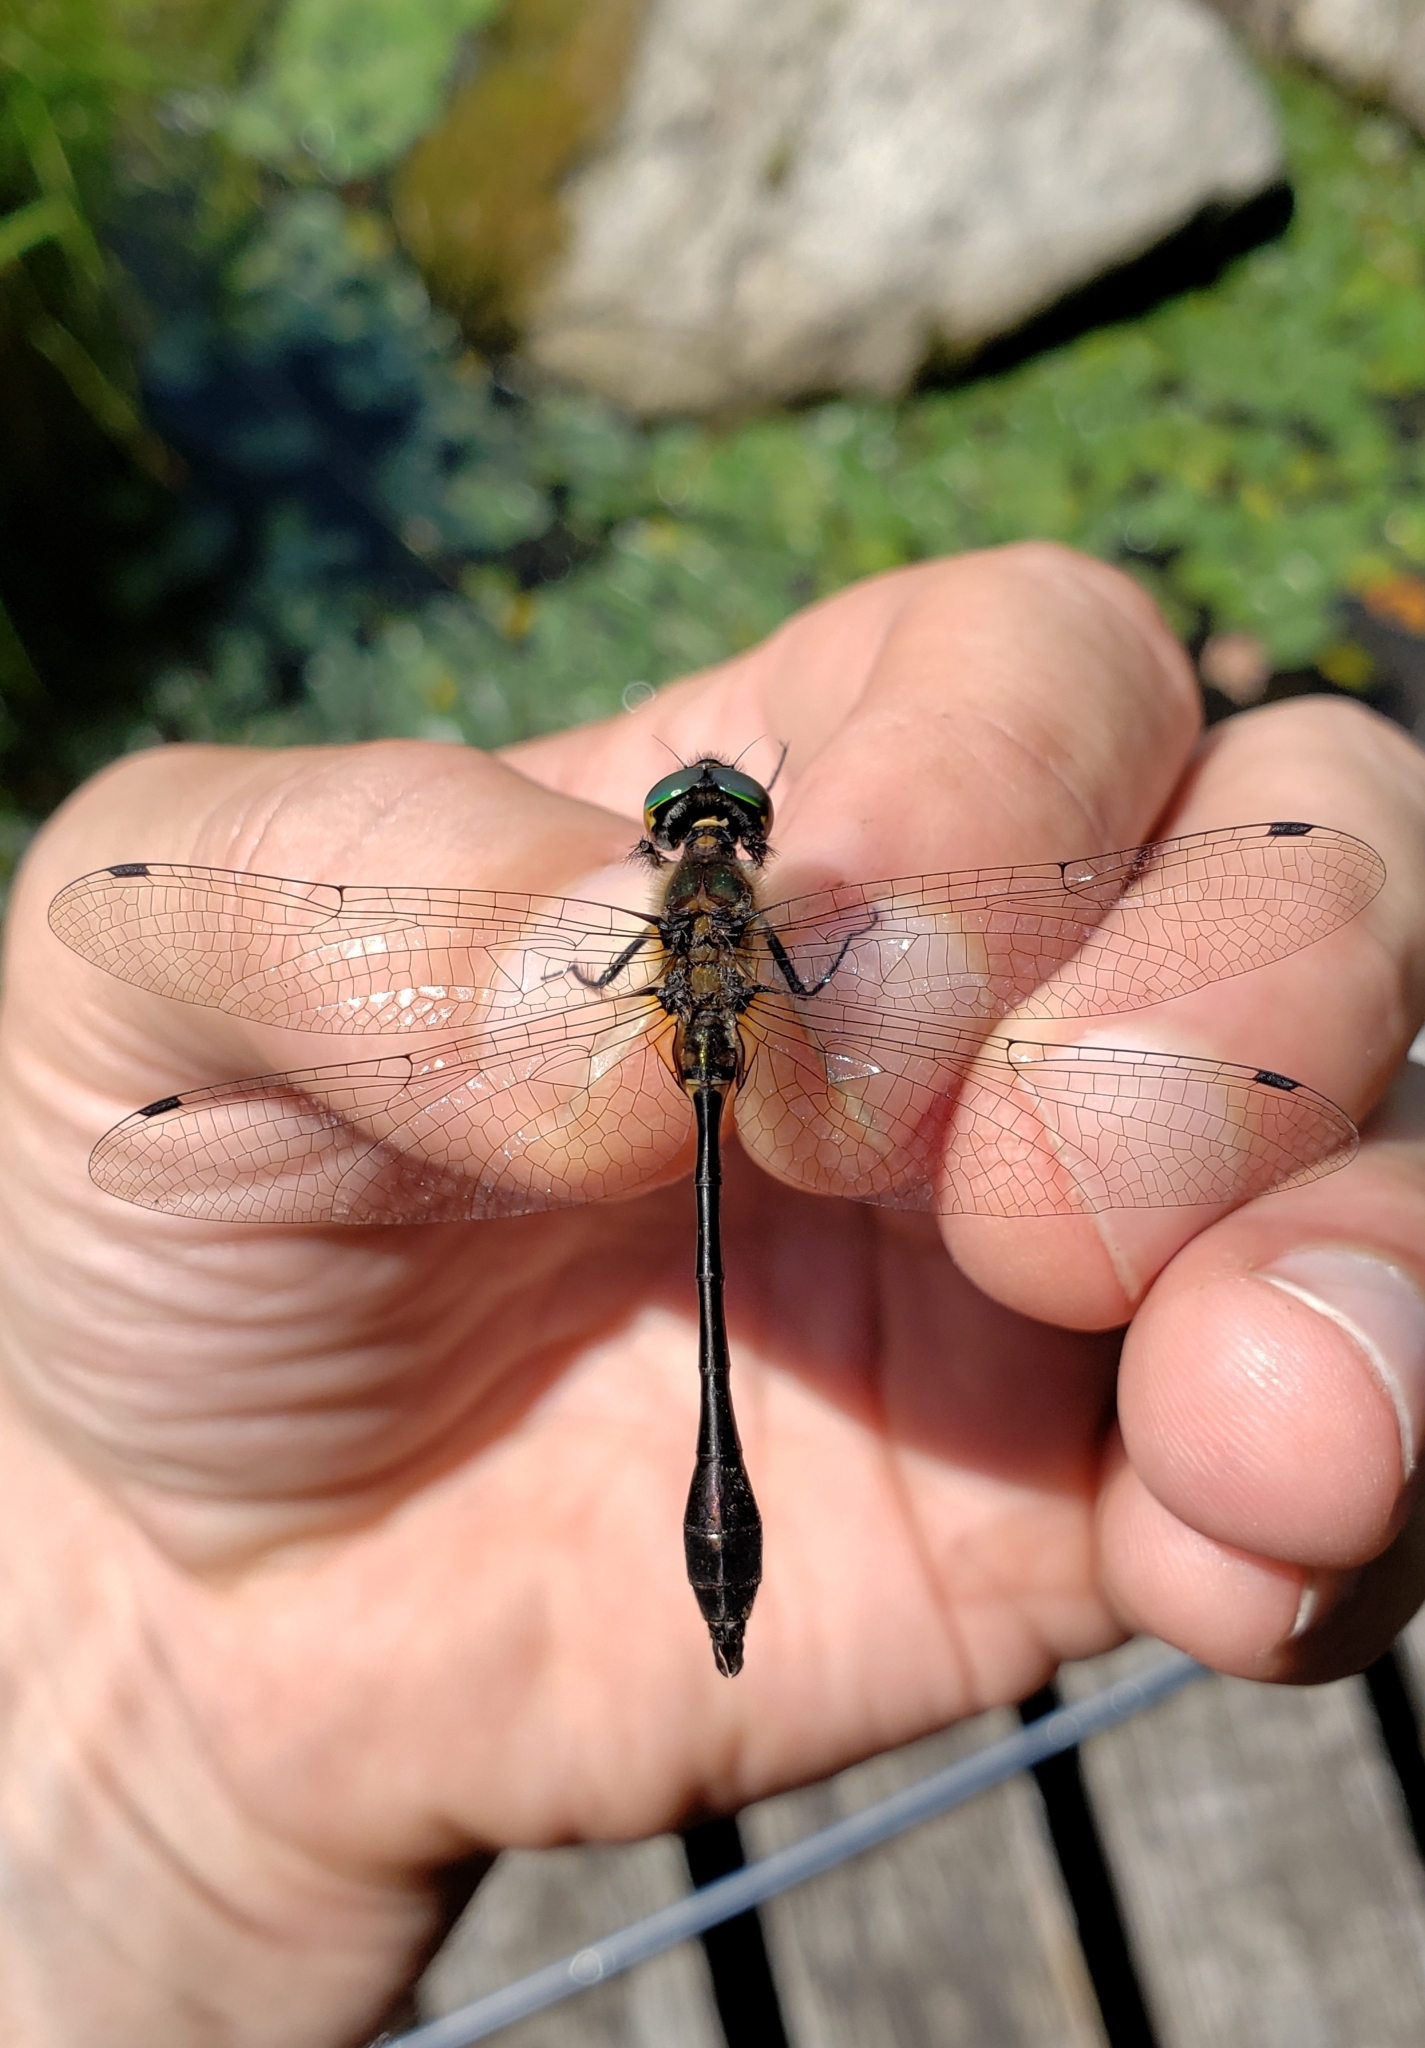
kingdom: Animalia
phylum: Arthropoda
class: Insecta
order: Odonata
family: Corduliidae
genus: Dorocordulia
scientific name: Dorocordulia libera
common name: Racket-tailed emerald
